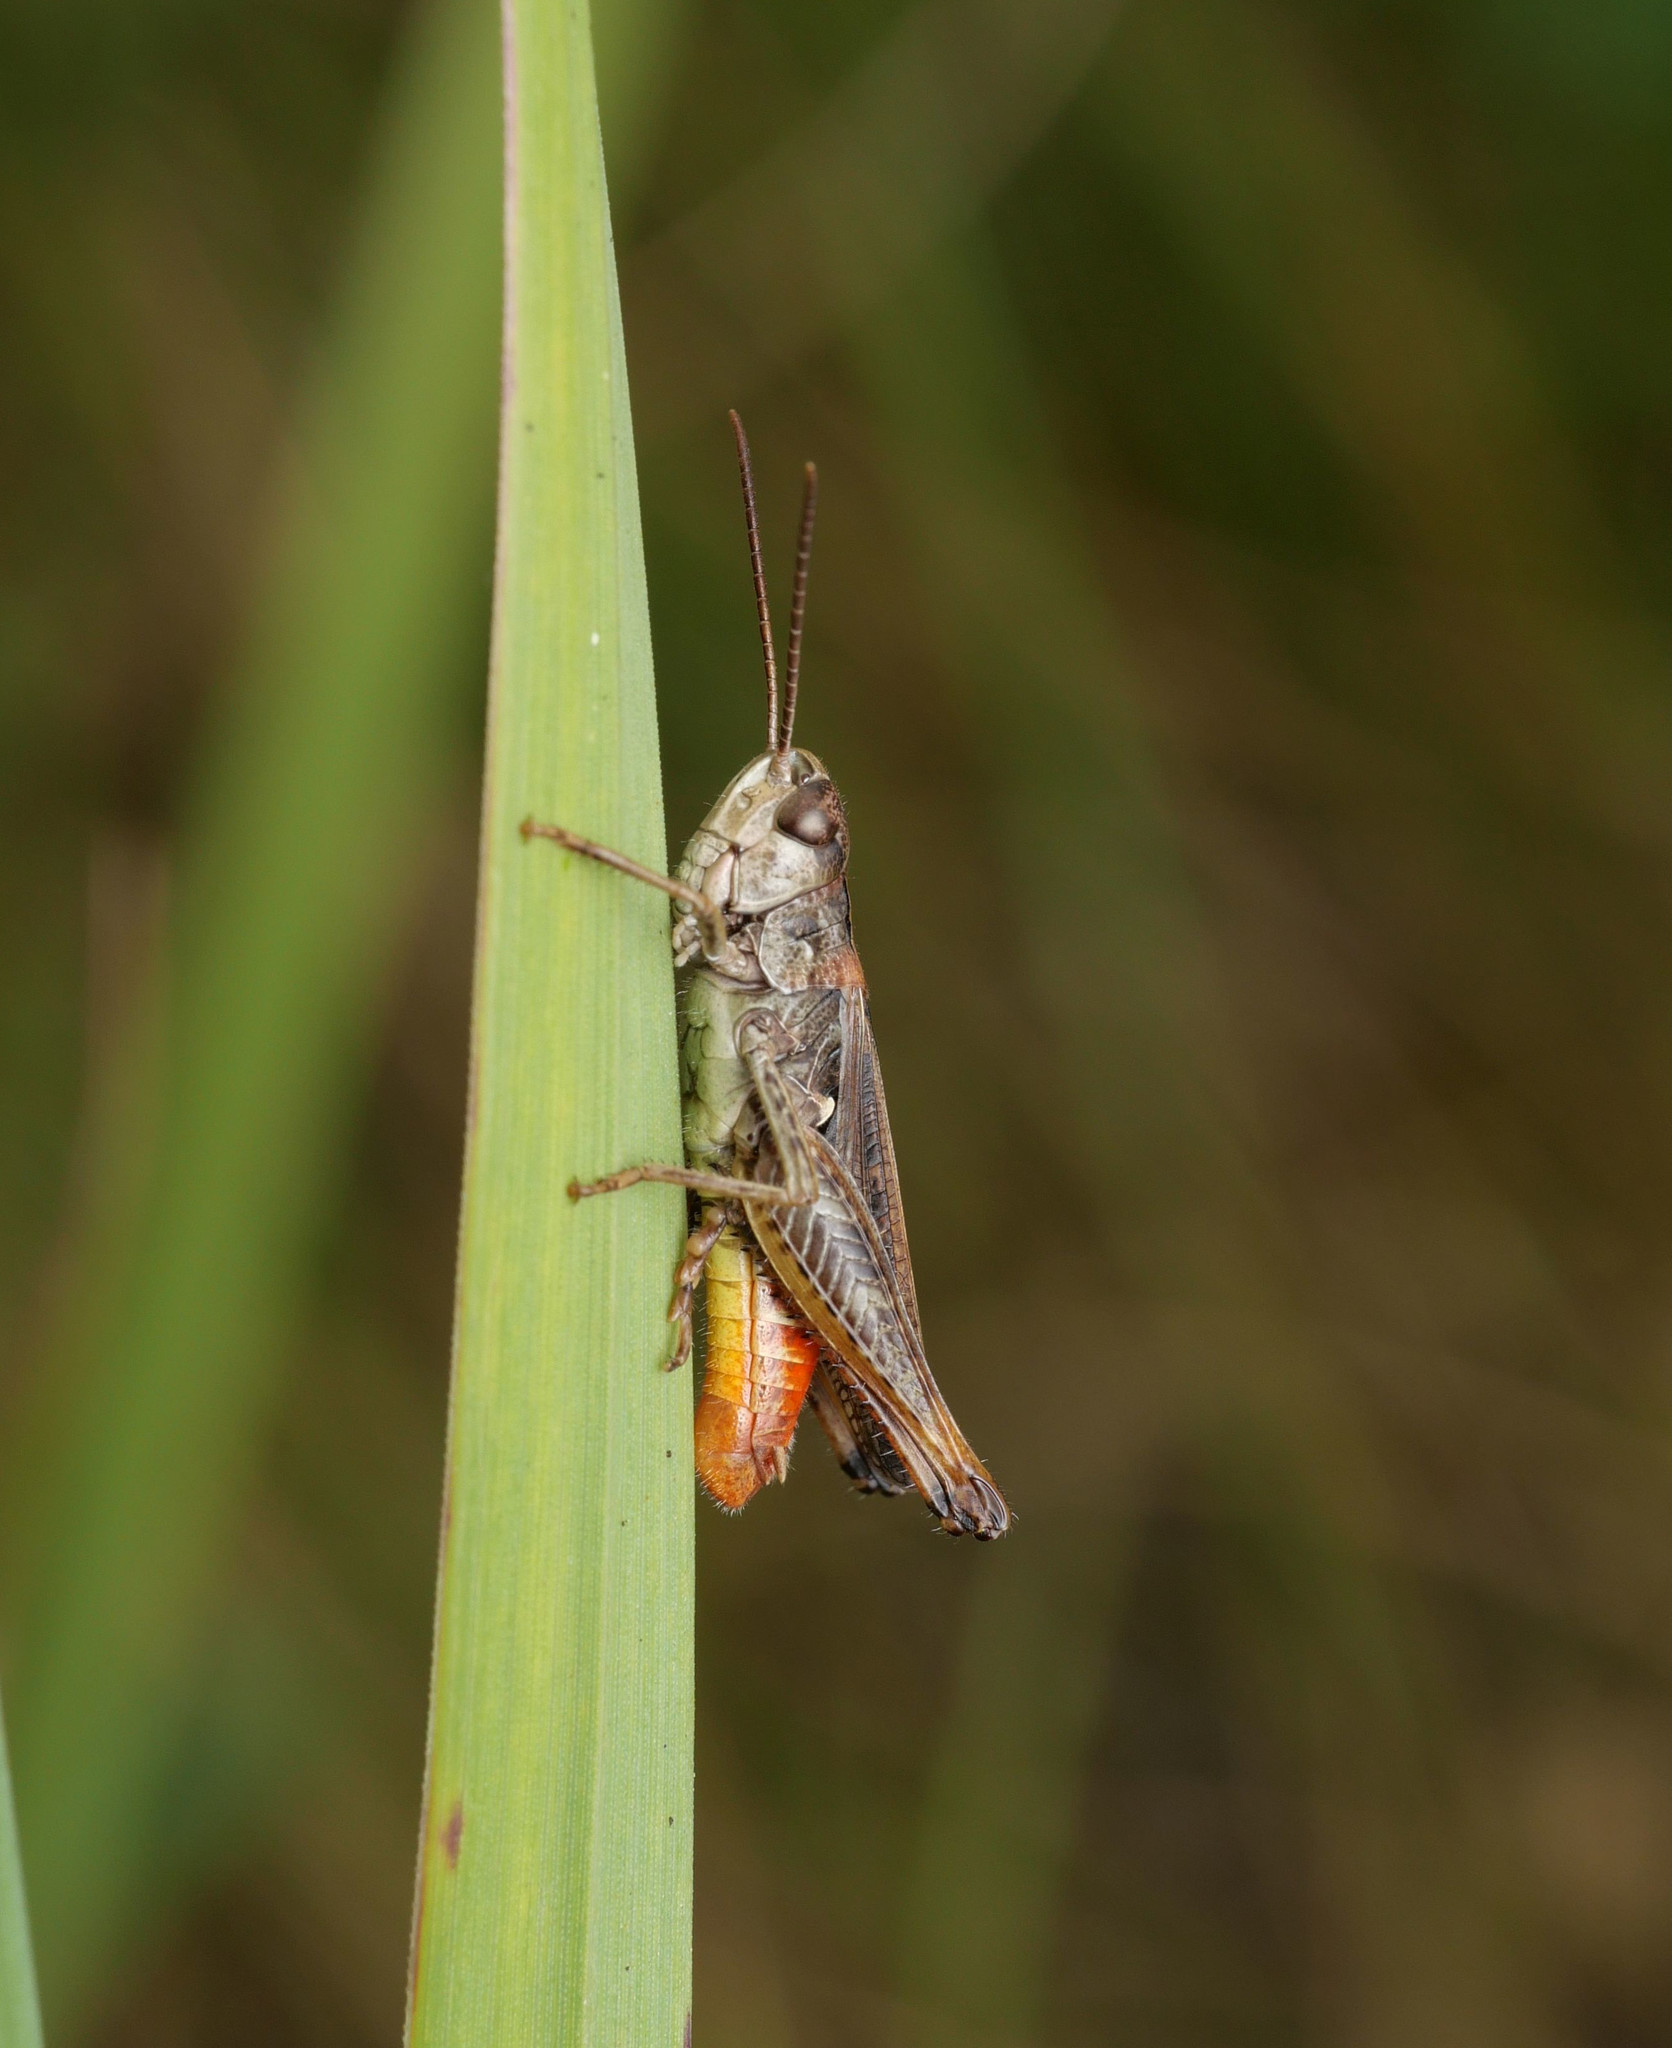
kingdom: Animalia
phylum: Arthropoda
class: Insecta
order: Orthoptera
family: Acrididae
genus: Omocestus
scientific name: Omocestus haemorrhoidalis
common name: Orange-tipped grasshopper
